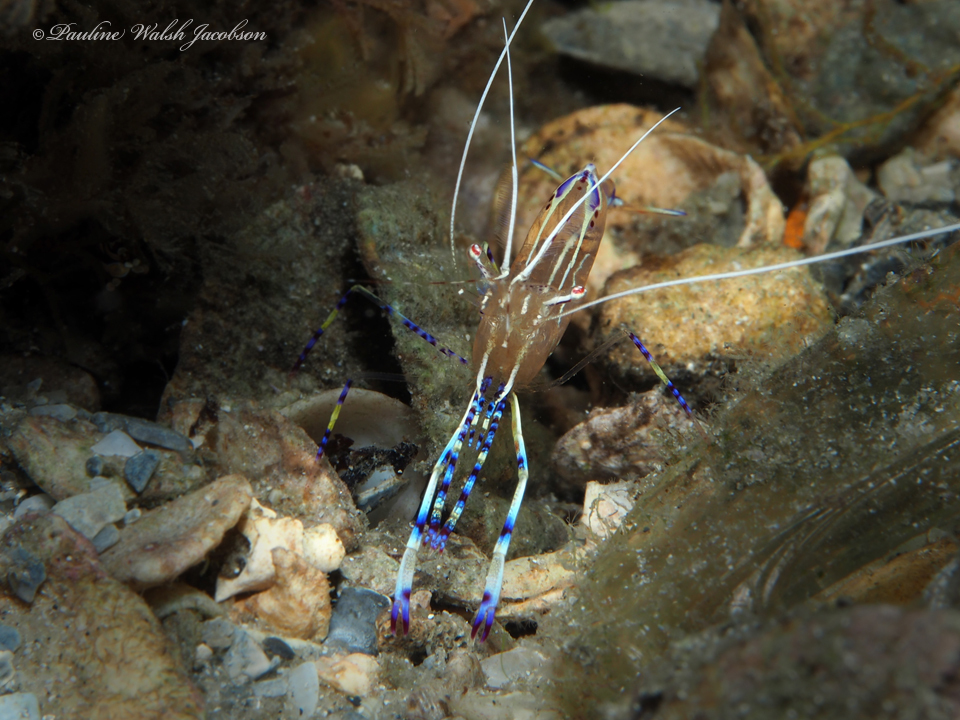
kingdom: Animalia
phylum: Arthropoda
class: Malacostraca
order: Decapoda
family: Palaemonidae
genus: Ancylomenes
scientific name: Ancylomenes pedersoni
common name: Pederson's cleaning shrimp
